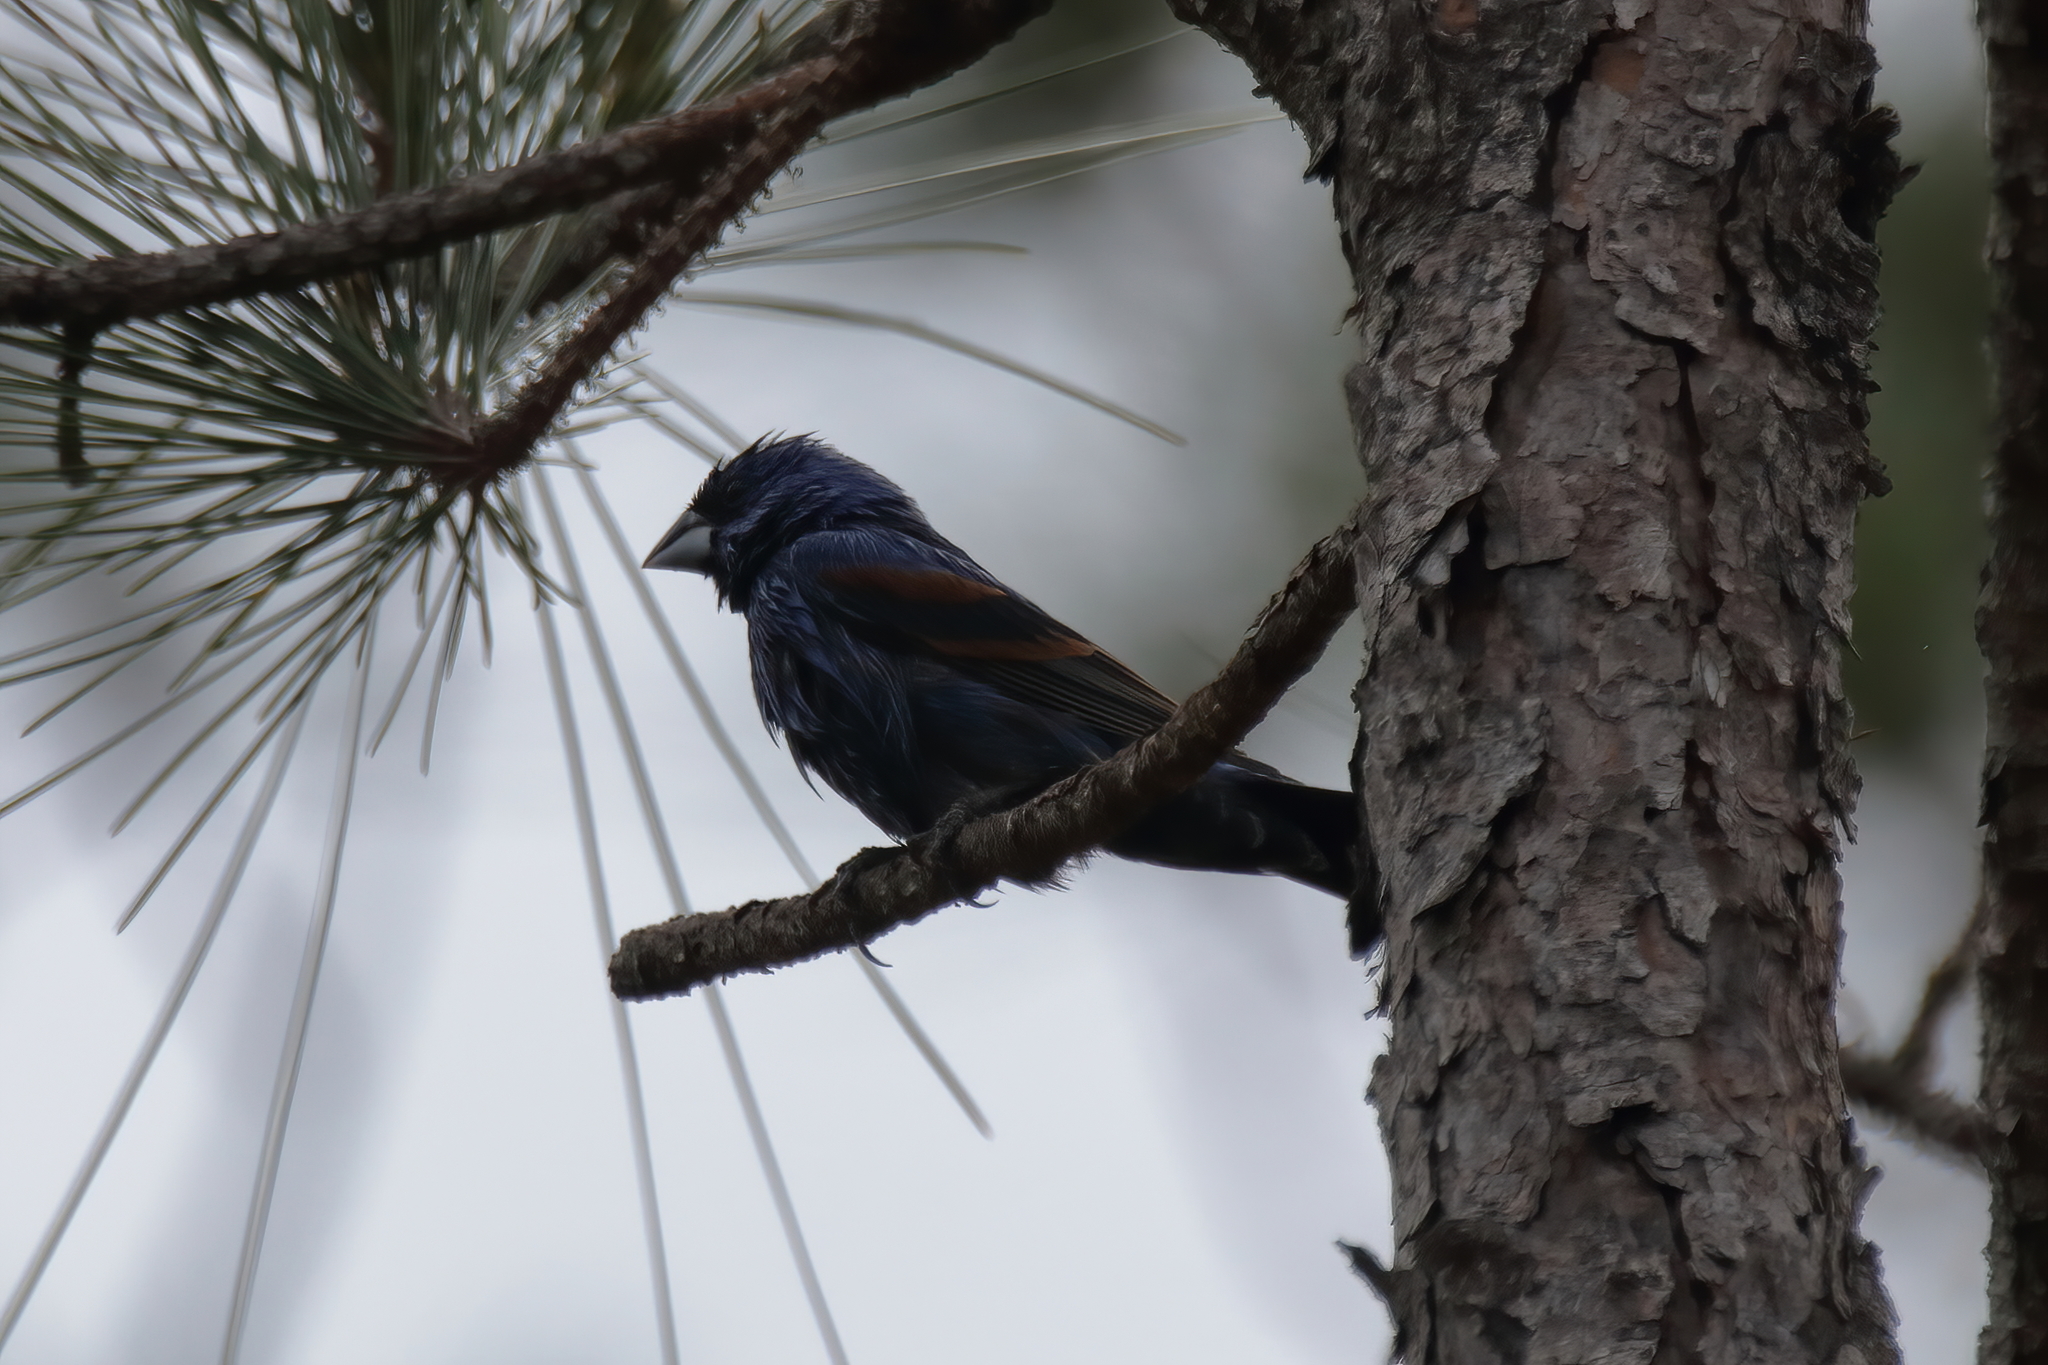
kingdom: Animalia
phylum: Chordata
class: Aves
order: Passeriformes
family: Cardinalidae
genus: Passerina
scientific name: Passerina caerulea
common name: Blue grosbeak
